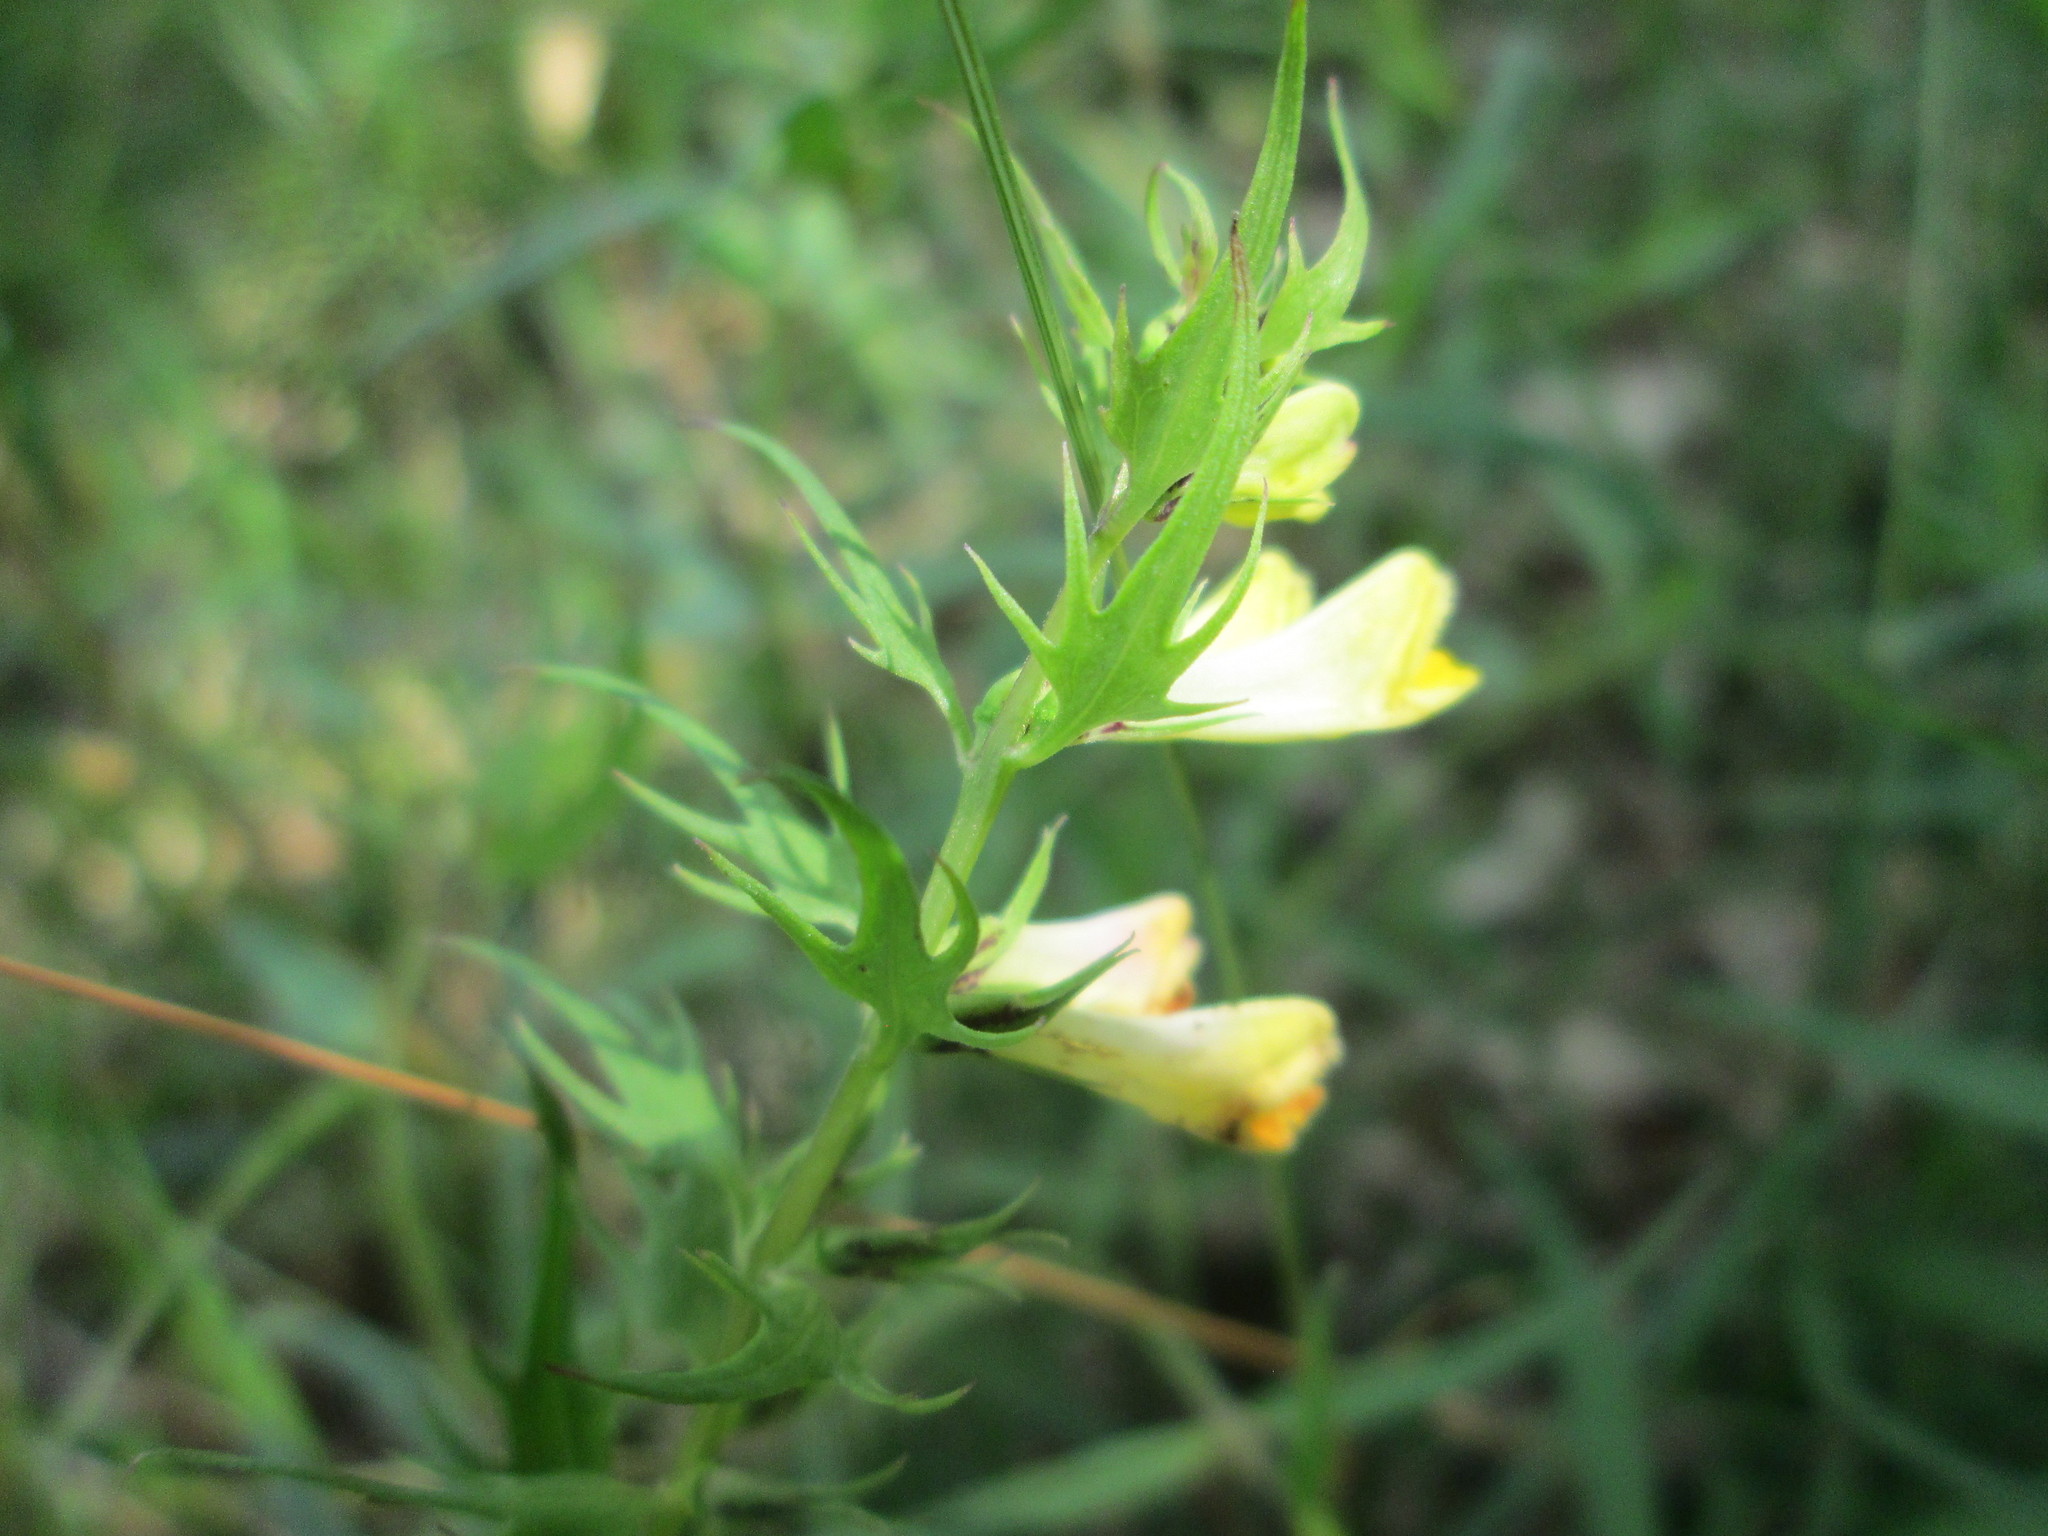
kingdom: Plantae
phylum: Tracheophyta
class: Magnoliopsida
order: Lamiales
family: Orobanchaceae
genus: Melampyrum
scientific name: Melampyrum pratense
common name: Common cow-wheat
